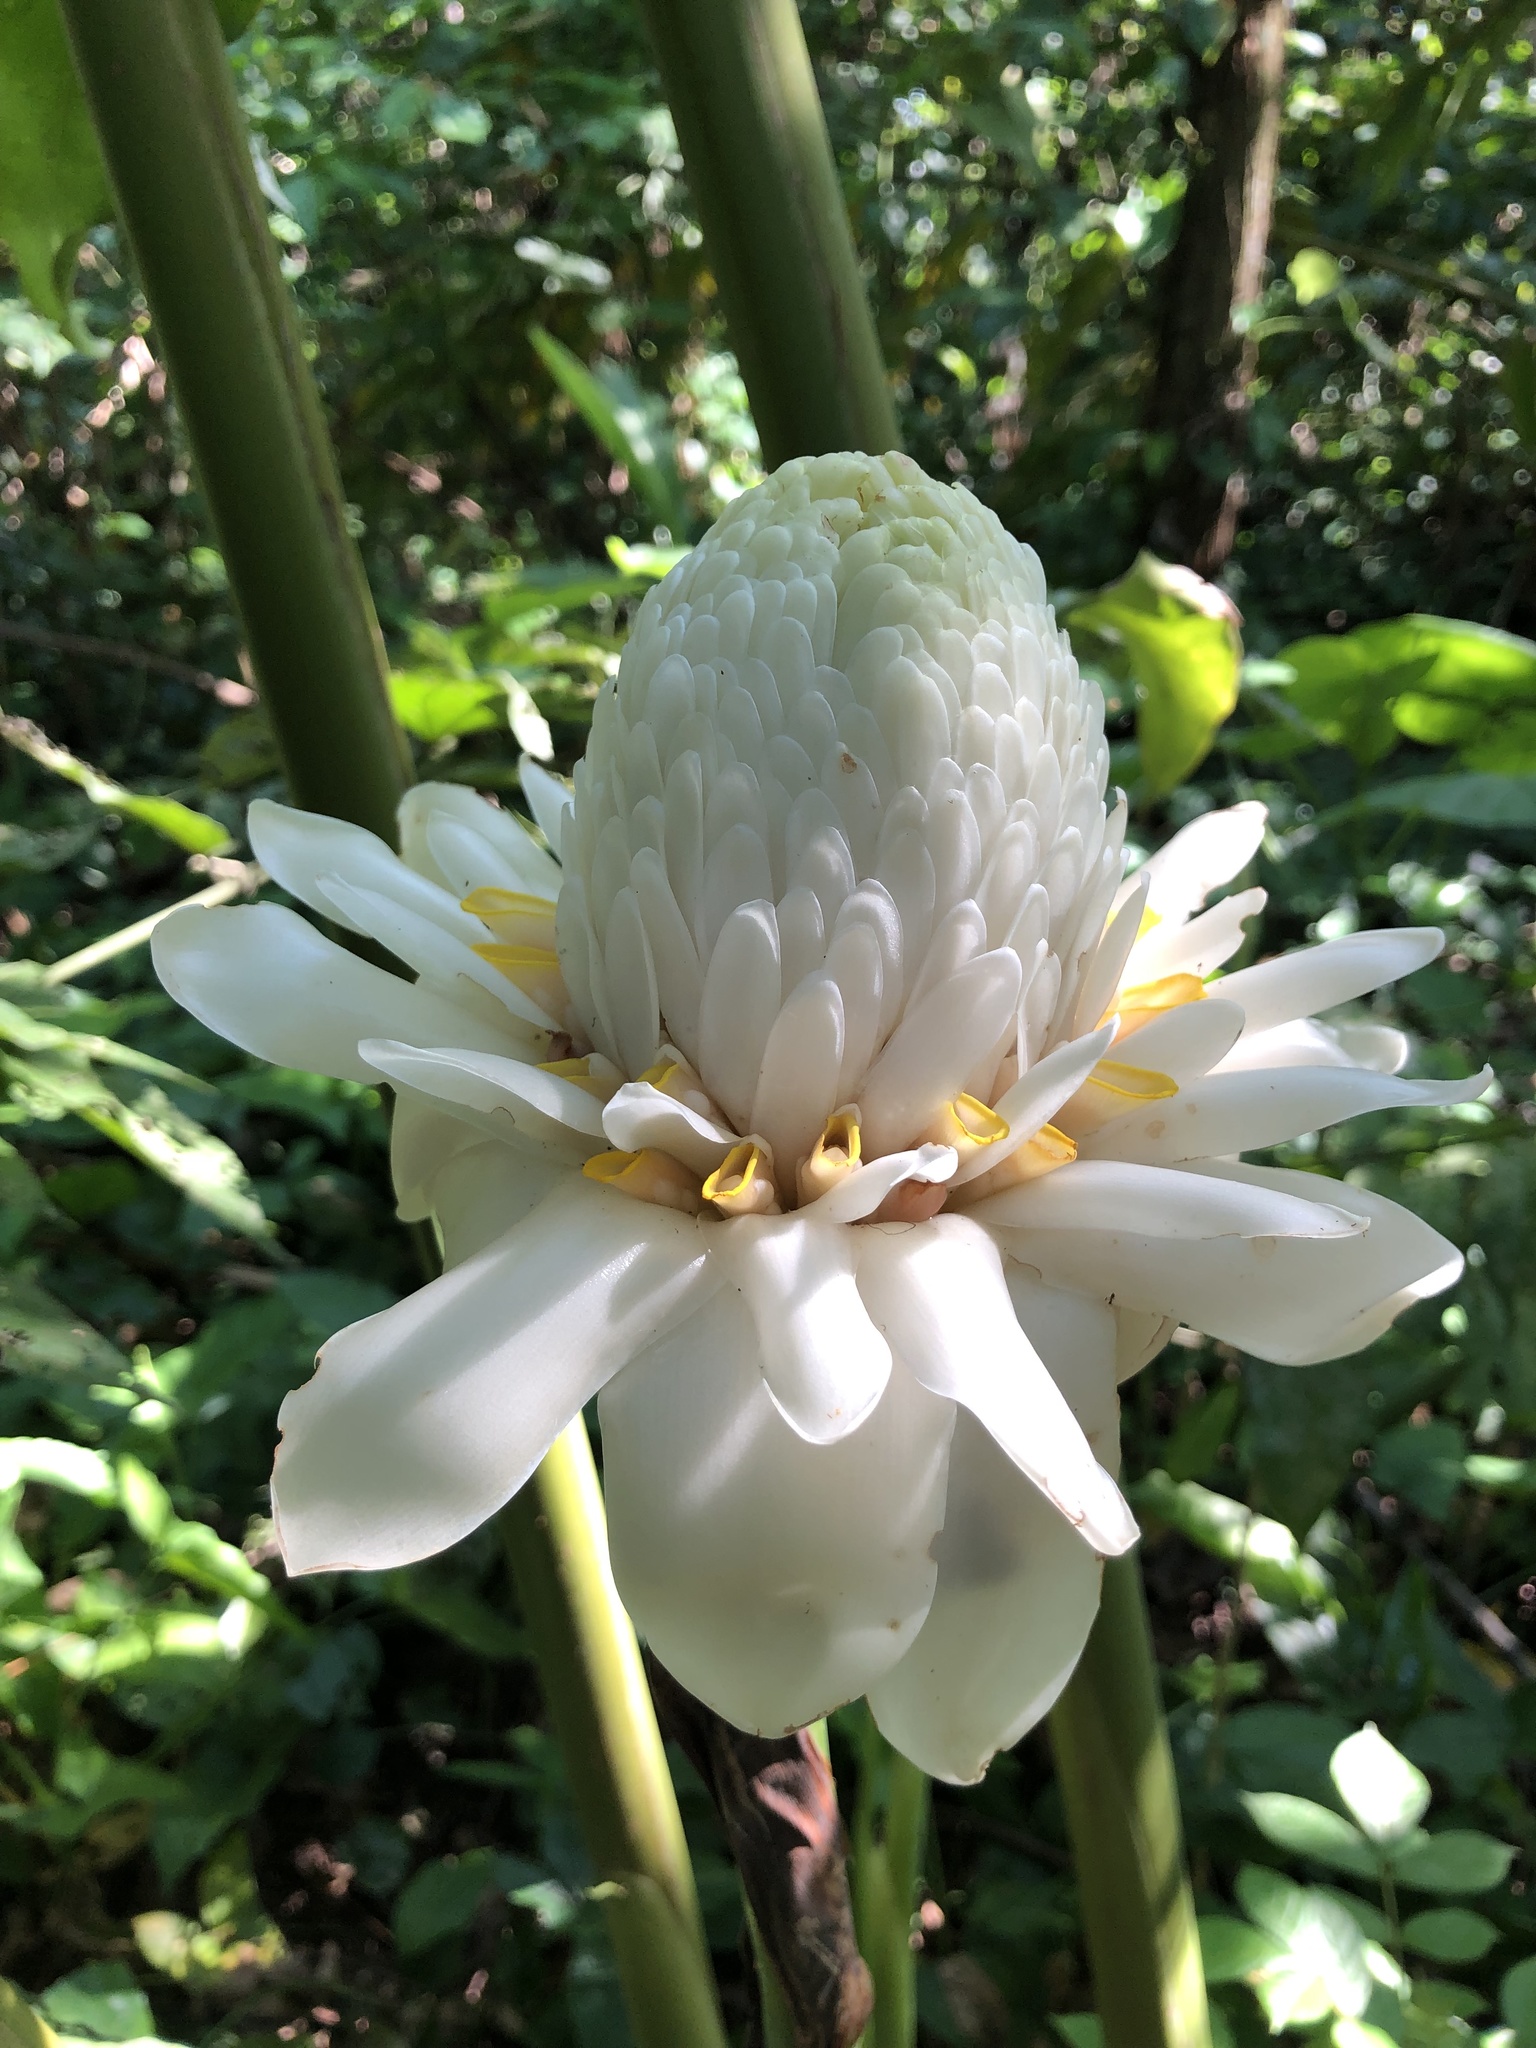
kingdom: Plantae
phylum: Tracheophyta
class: Liliopsida
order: Zingiberales
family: Zingiberaceae
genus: Etlingera
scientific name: Etlingera elatior
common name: Philippine waxflower
